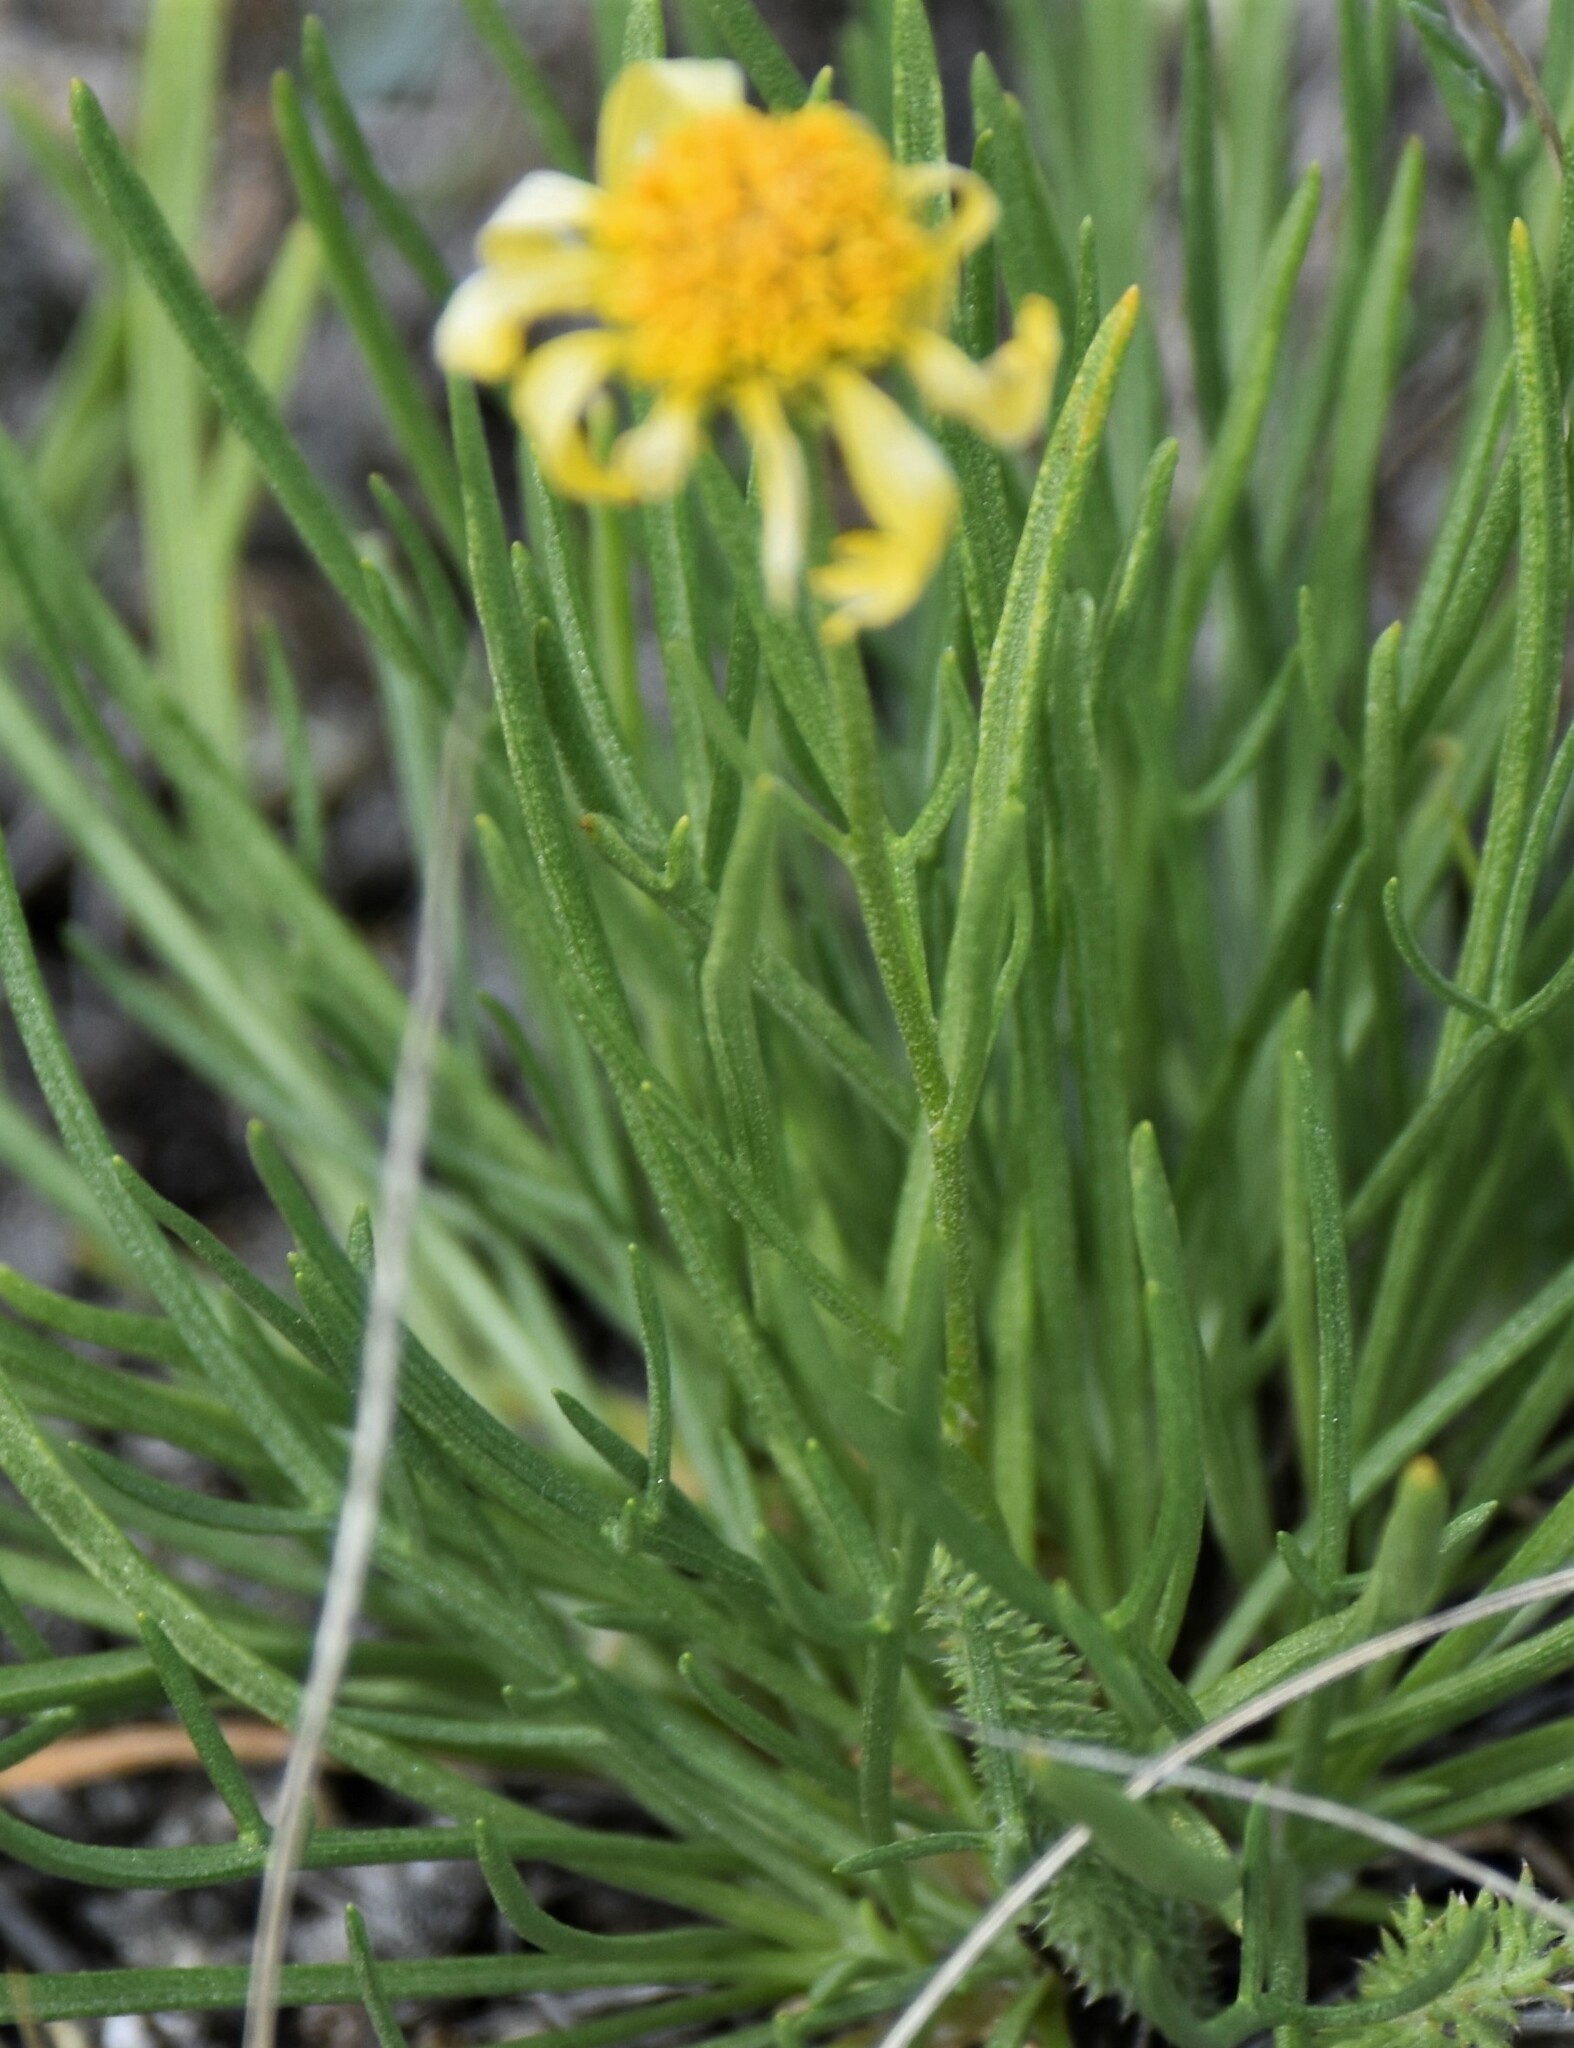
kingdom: Plantae
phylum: Tracheophyta
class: Magnoliopsida
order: Asterales
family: Asteraceae
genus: Hymenoxys
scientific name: Hymenoxys richardsonii
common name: Pingue rubberweed
